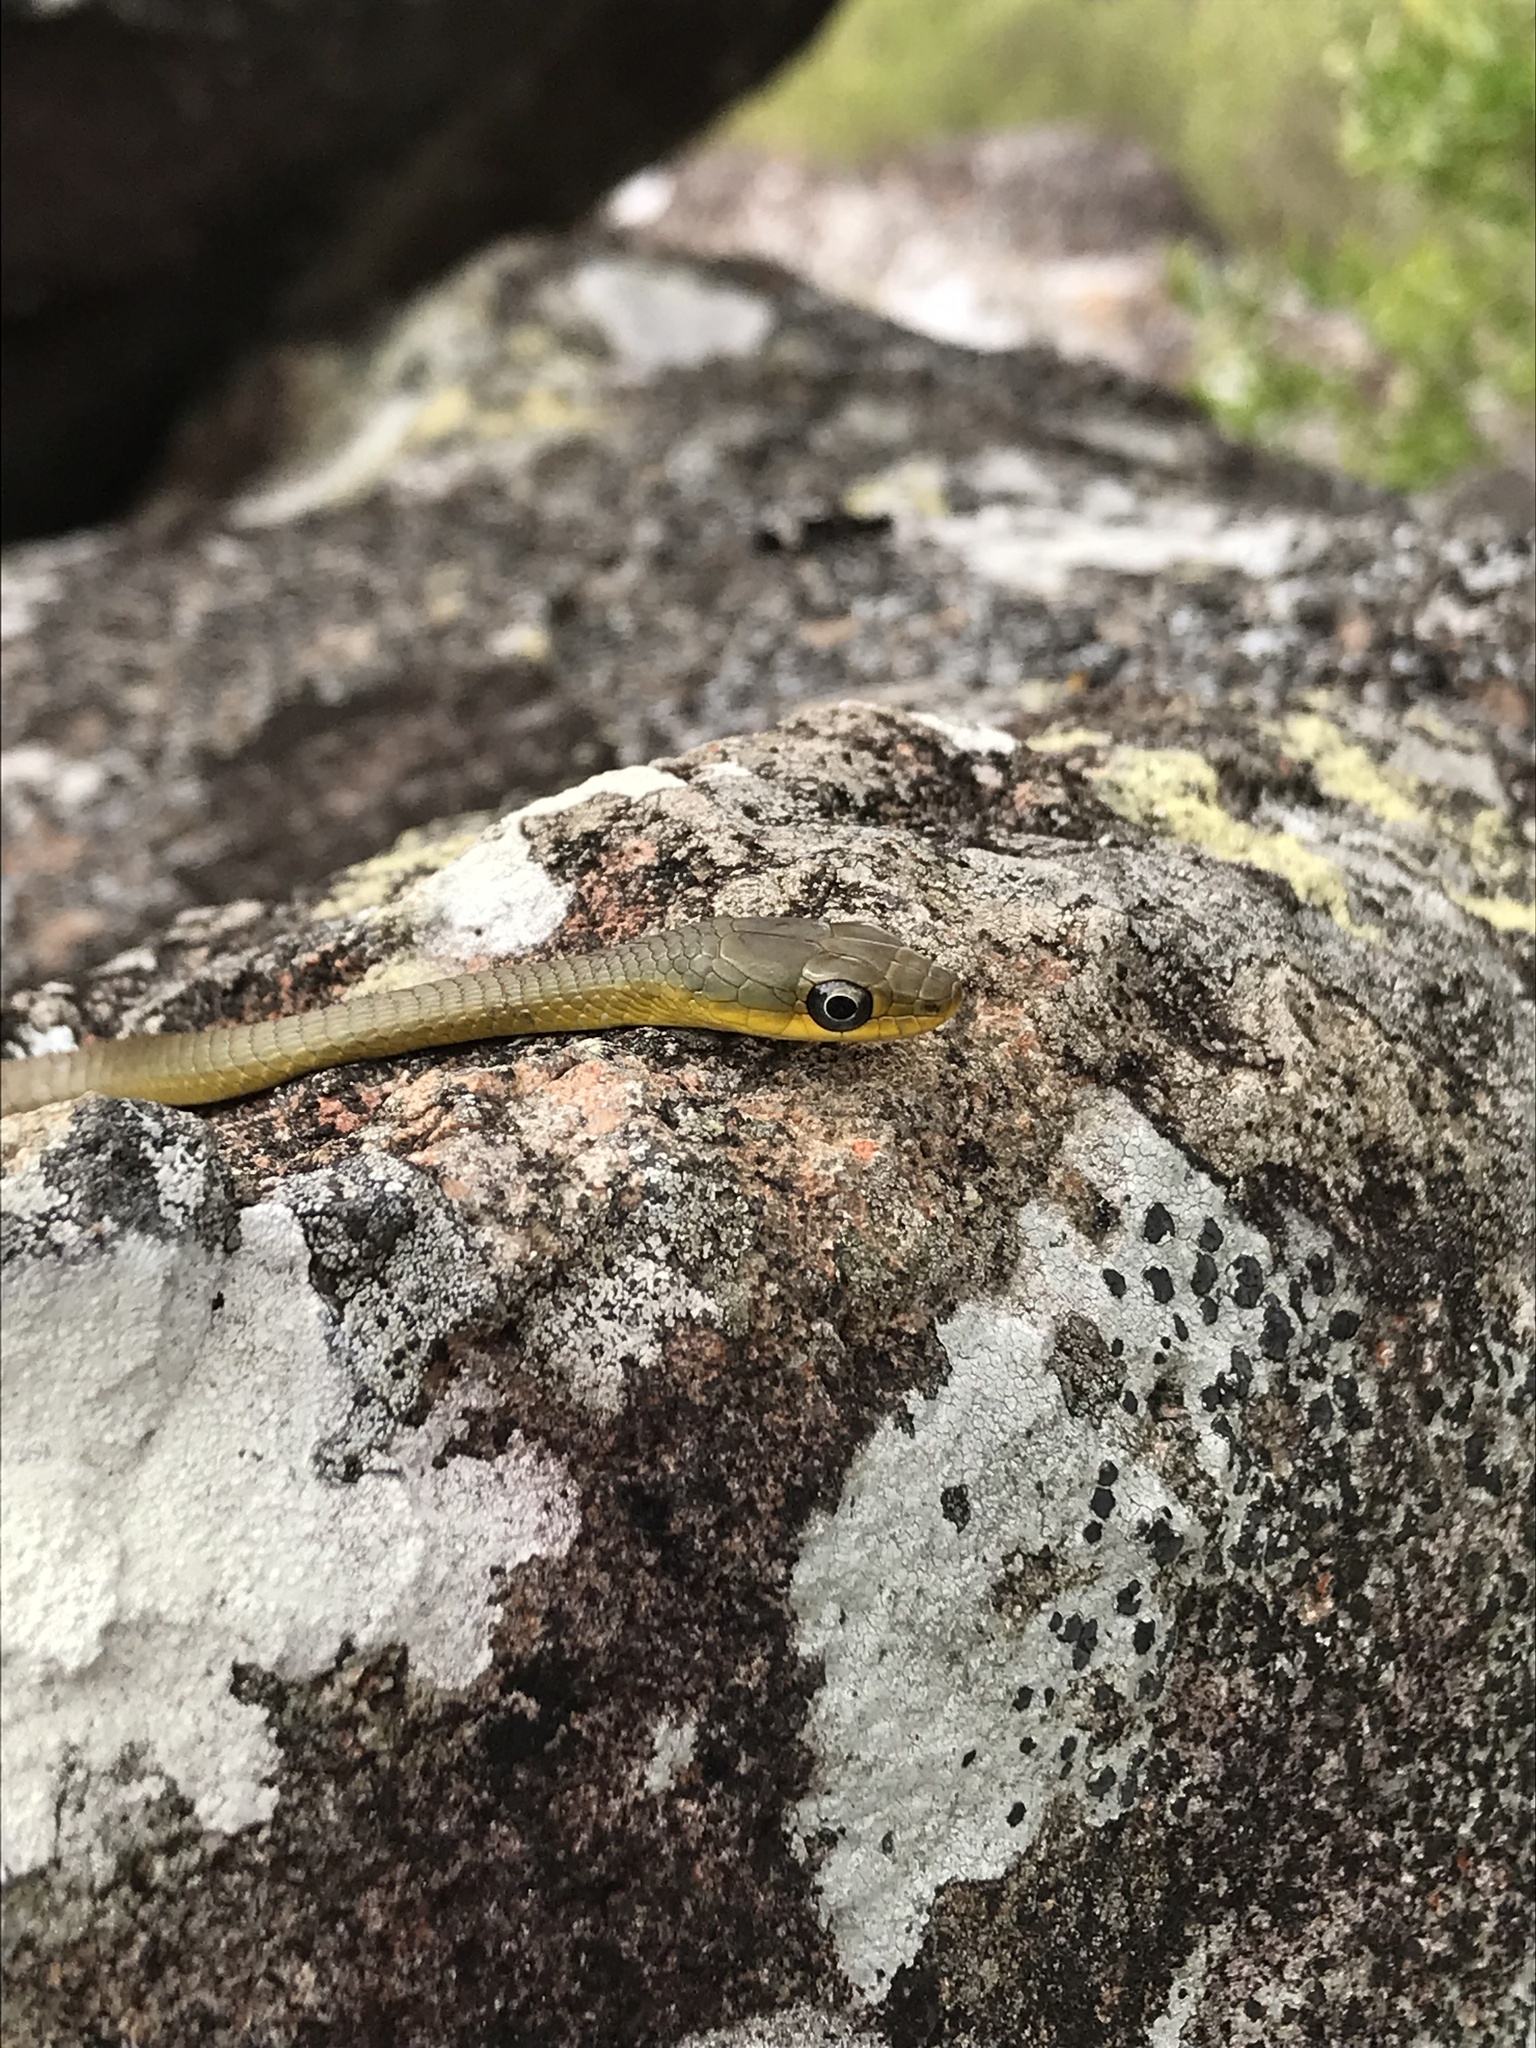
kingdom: Animalia
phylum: Chordata
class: Squamata
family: Colubridae
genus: Dendrelaphis
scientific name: Dendrelaphis punctulatus
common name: Common tree snake
